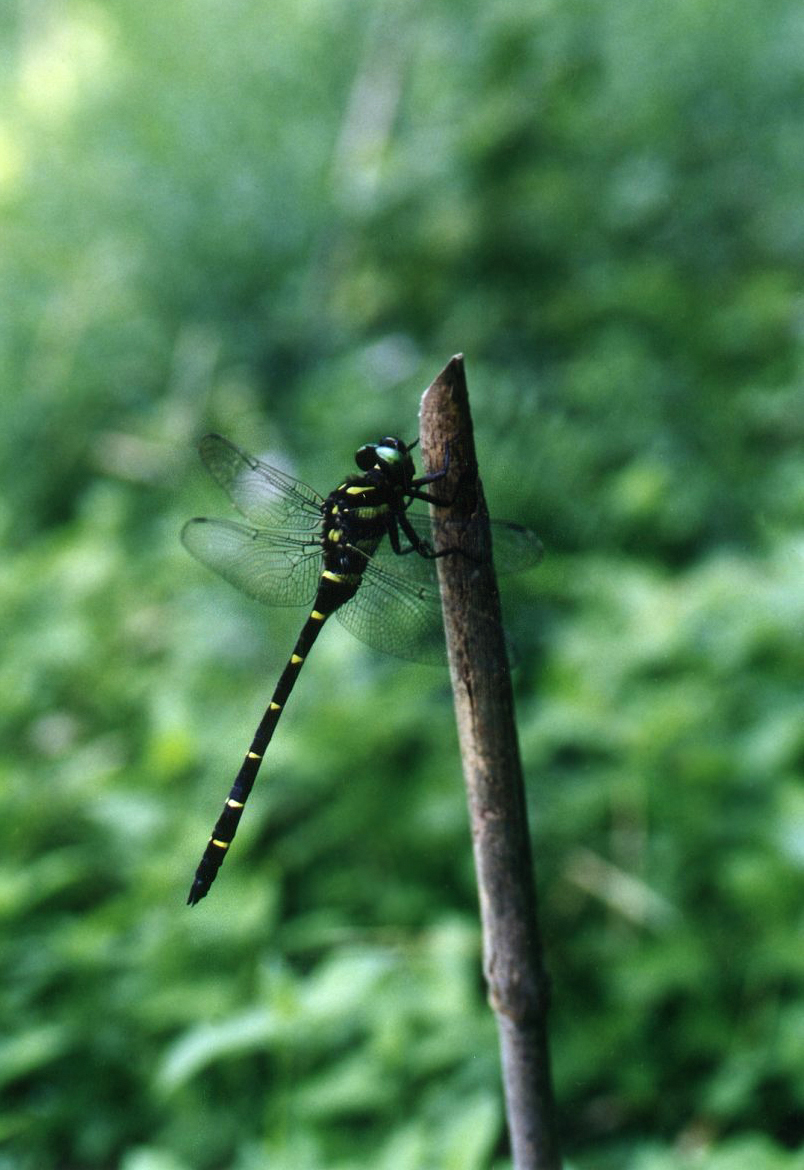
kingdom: Animalia
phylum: Arthropoda
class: Insecta
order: Odonata
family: Cordulegastridae
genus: Anotogaster
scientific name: Anotogaster sieboldii
